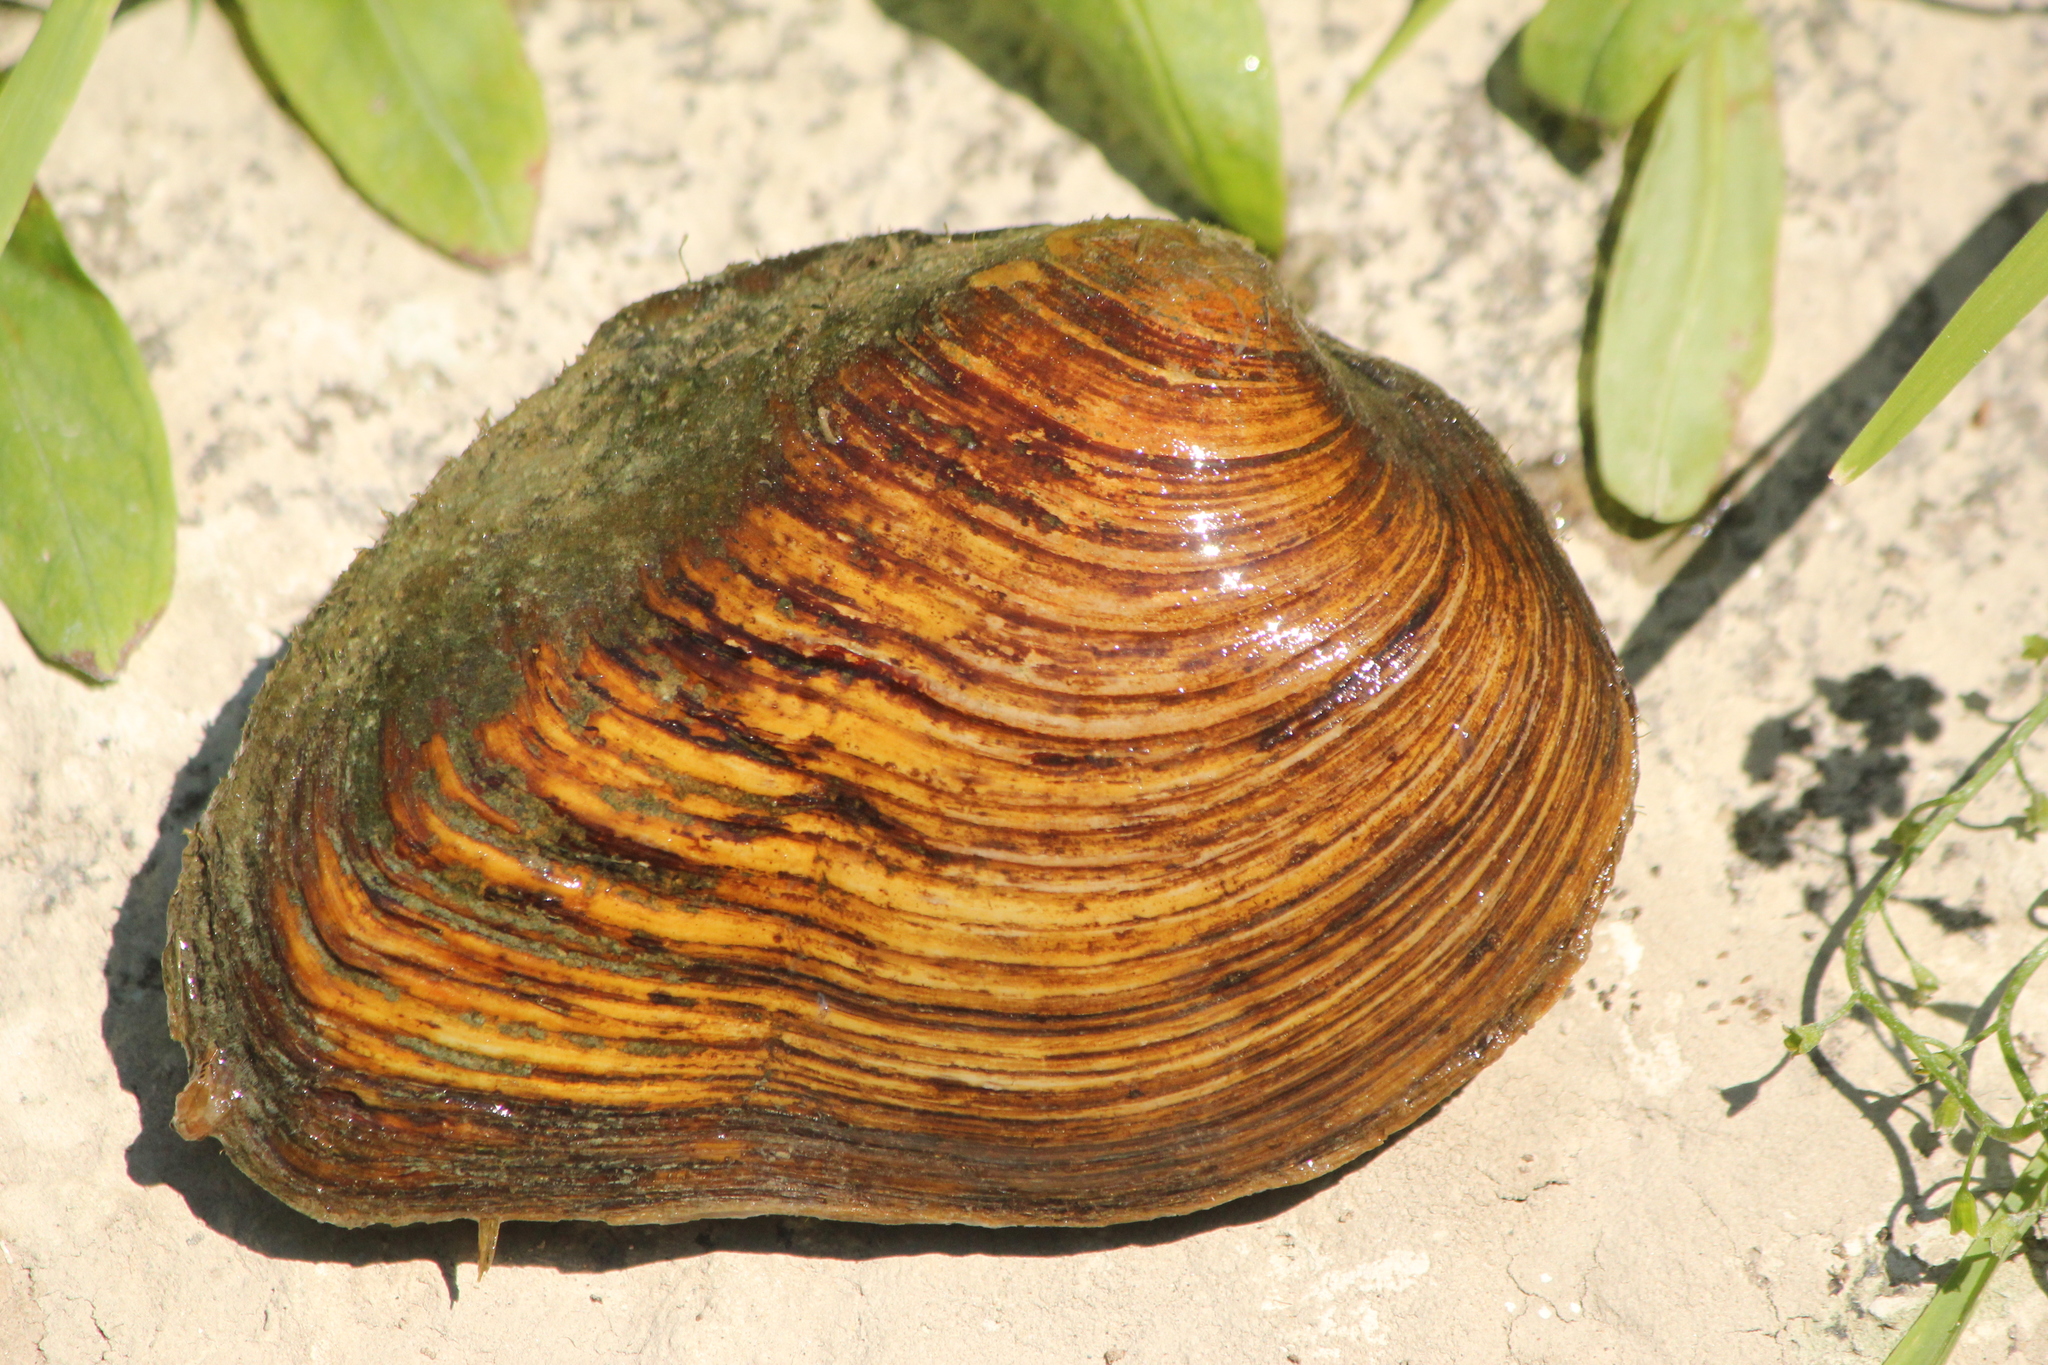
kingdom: Animalia
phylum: Mollusca
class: Bivalvia
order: Unionida
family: Unionidae
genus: Fusconaia
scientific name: Fusconaia flava
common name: Wabash pigtoe
